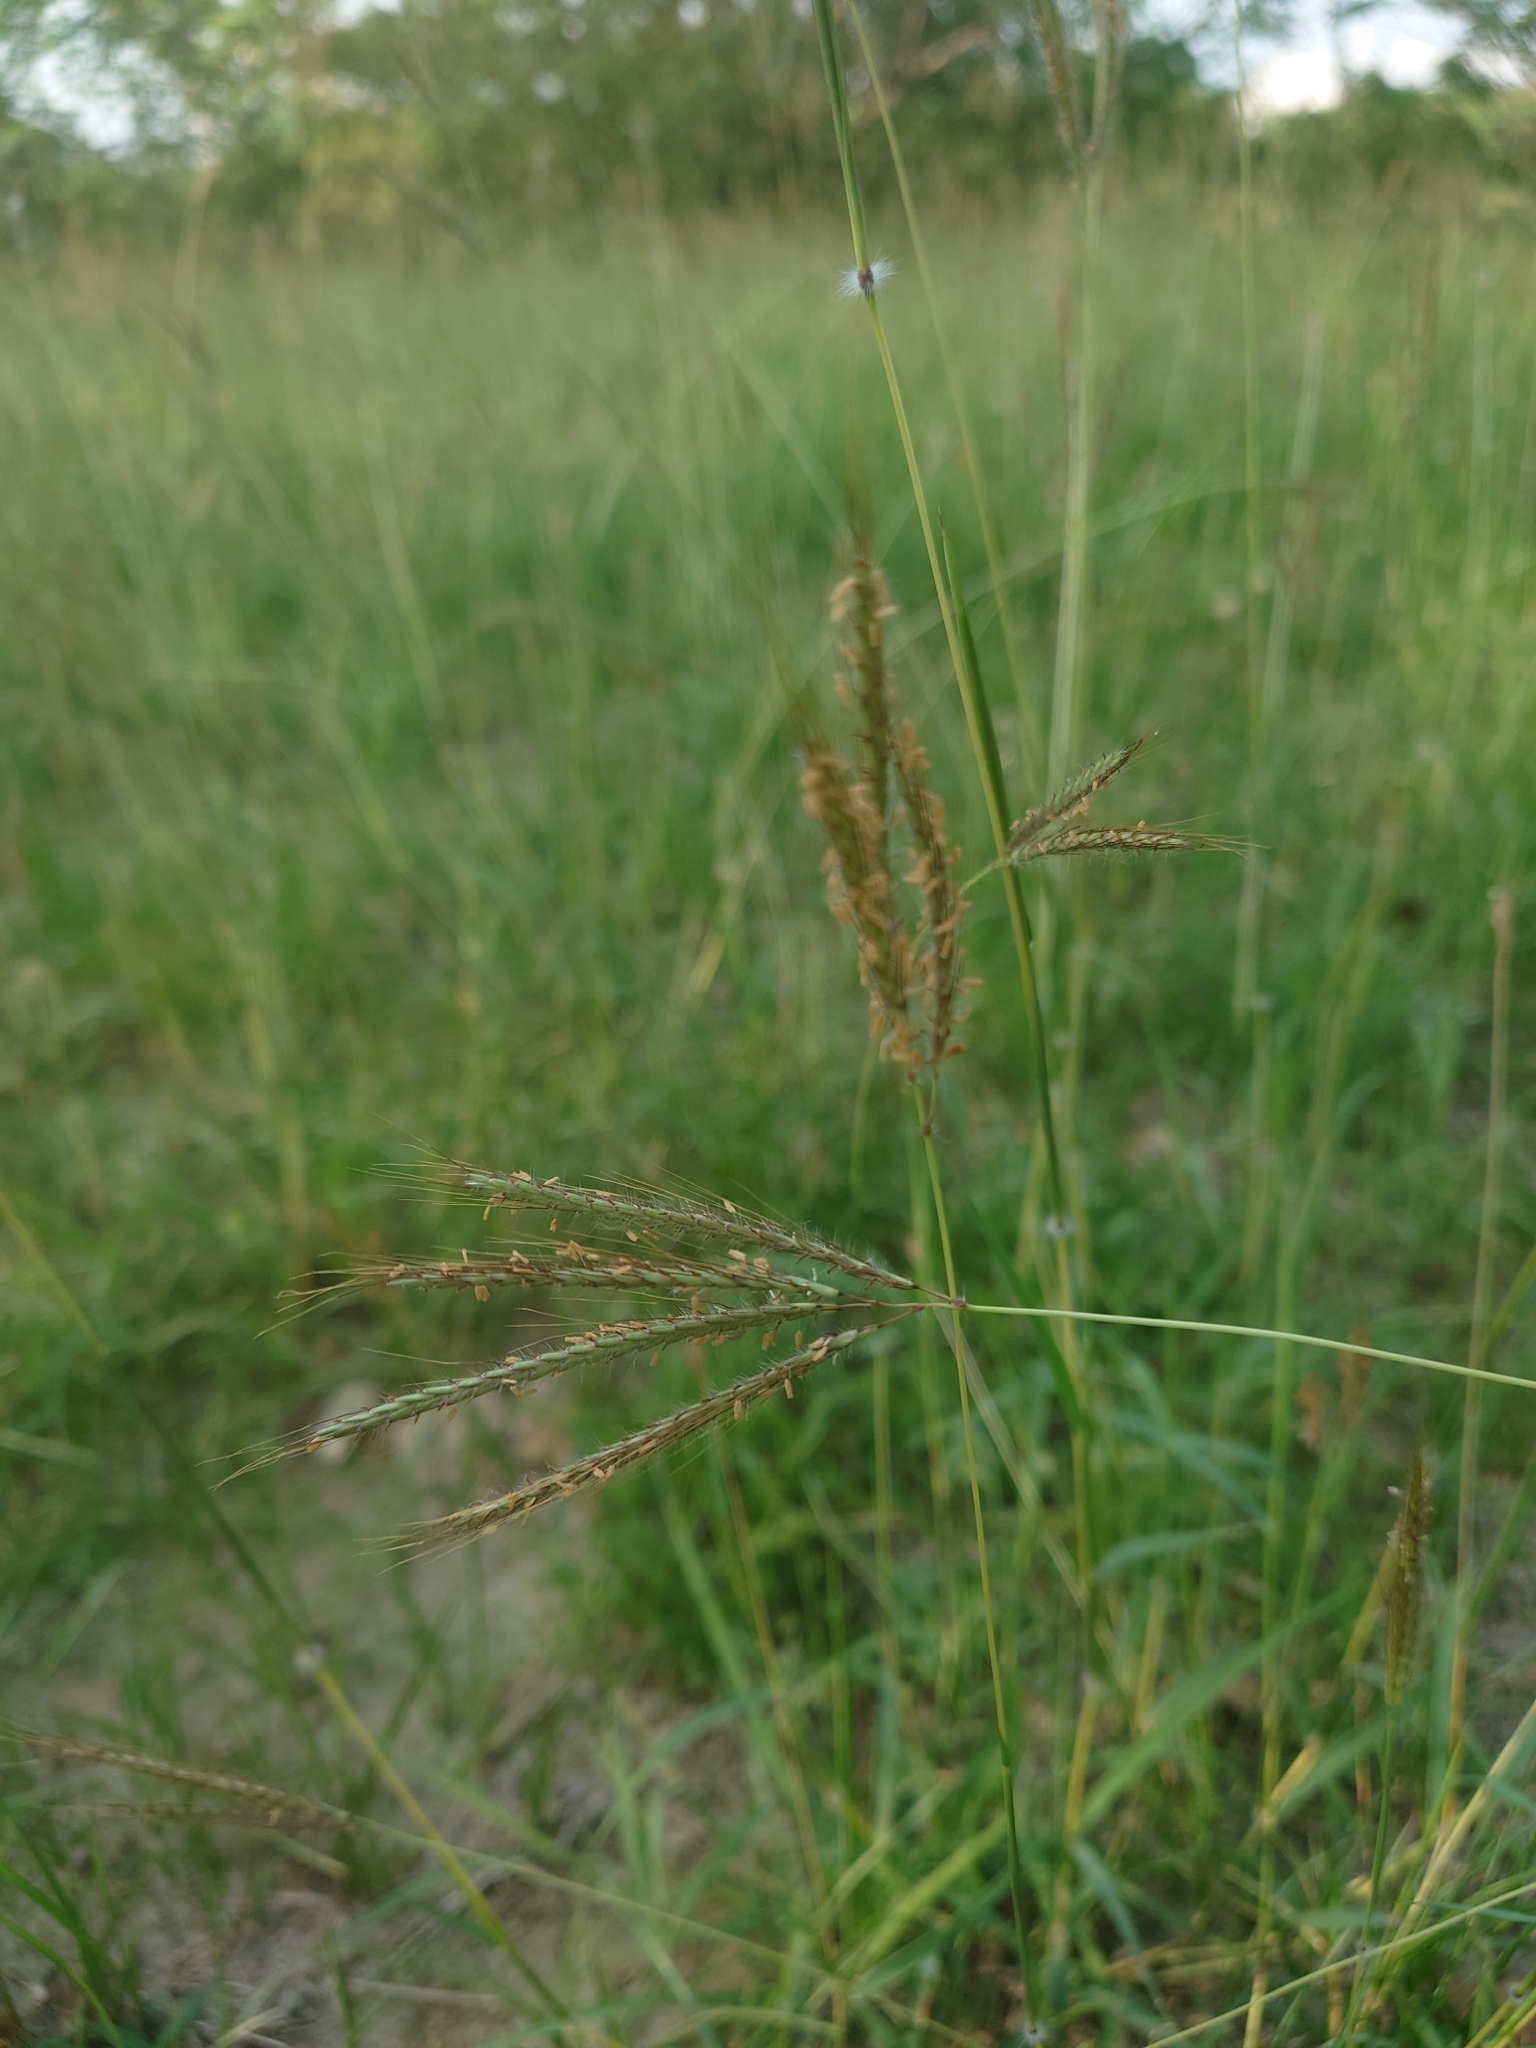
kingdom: Plantae
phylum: Tracheophyta
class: Liliopsida
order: Poales
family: Poaceae
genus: Dichanthium
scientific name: Dichanthium annulatum
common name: Kleberg's bluestem
